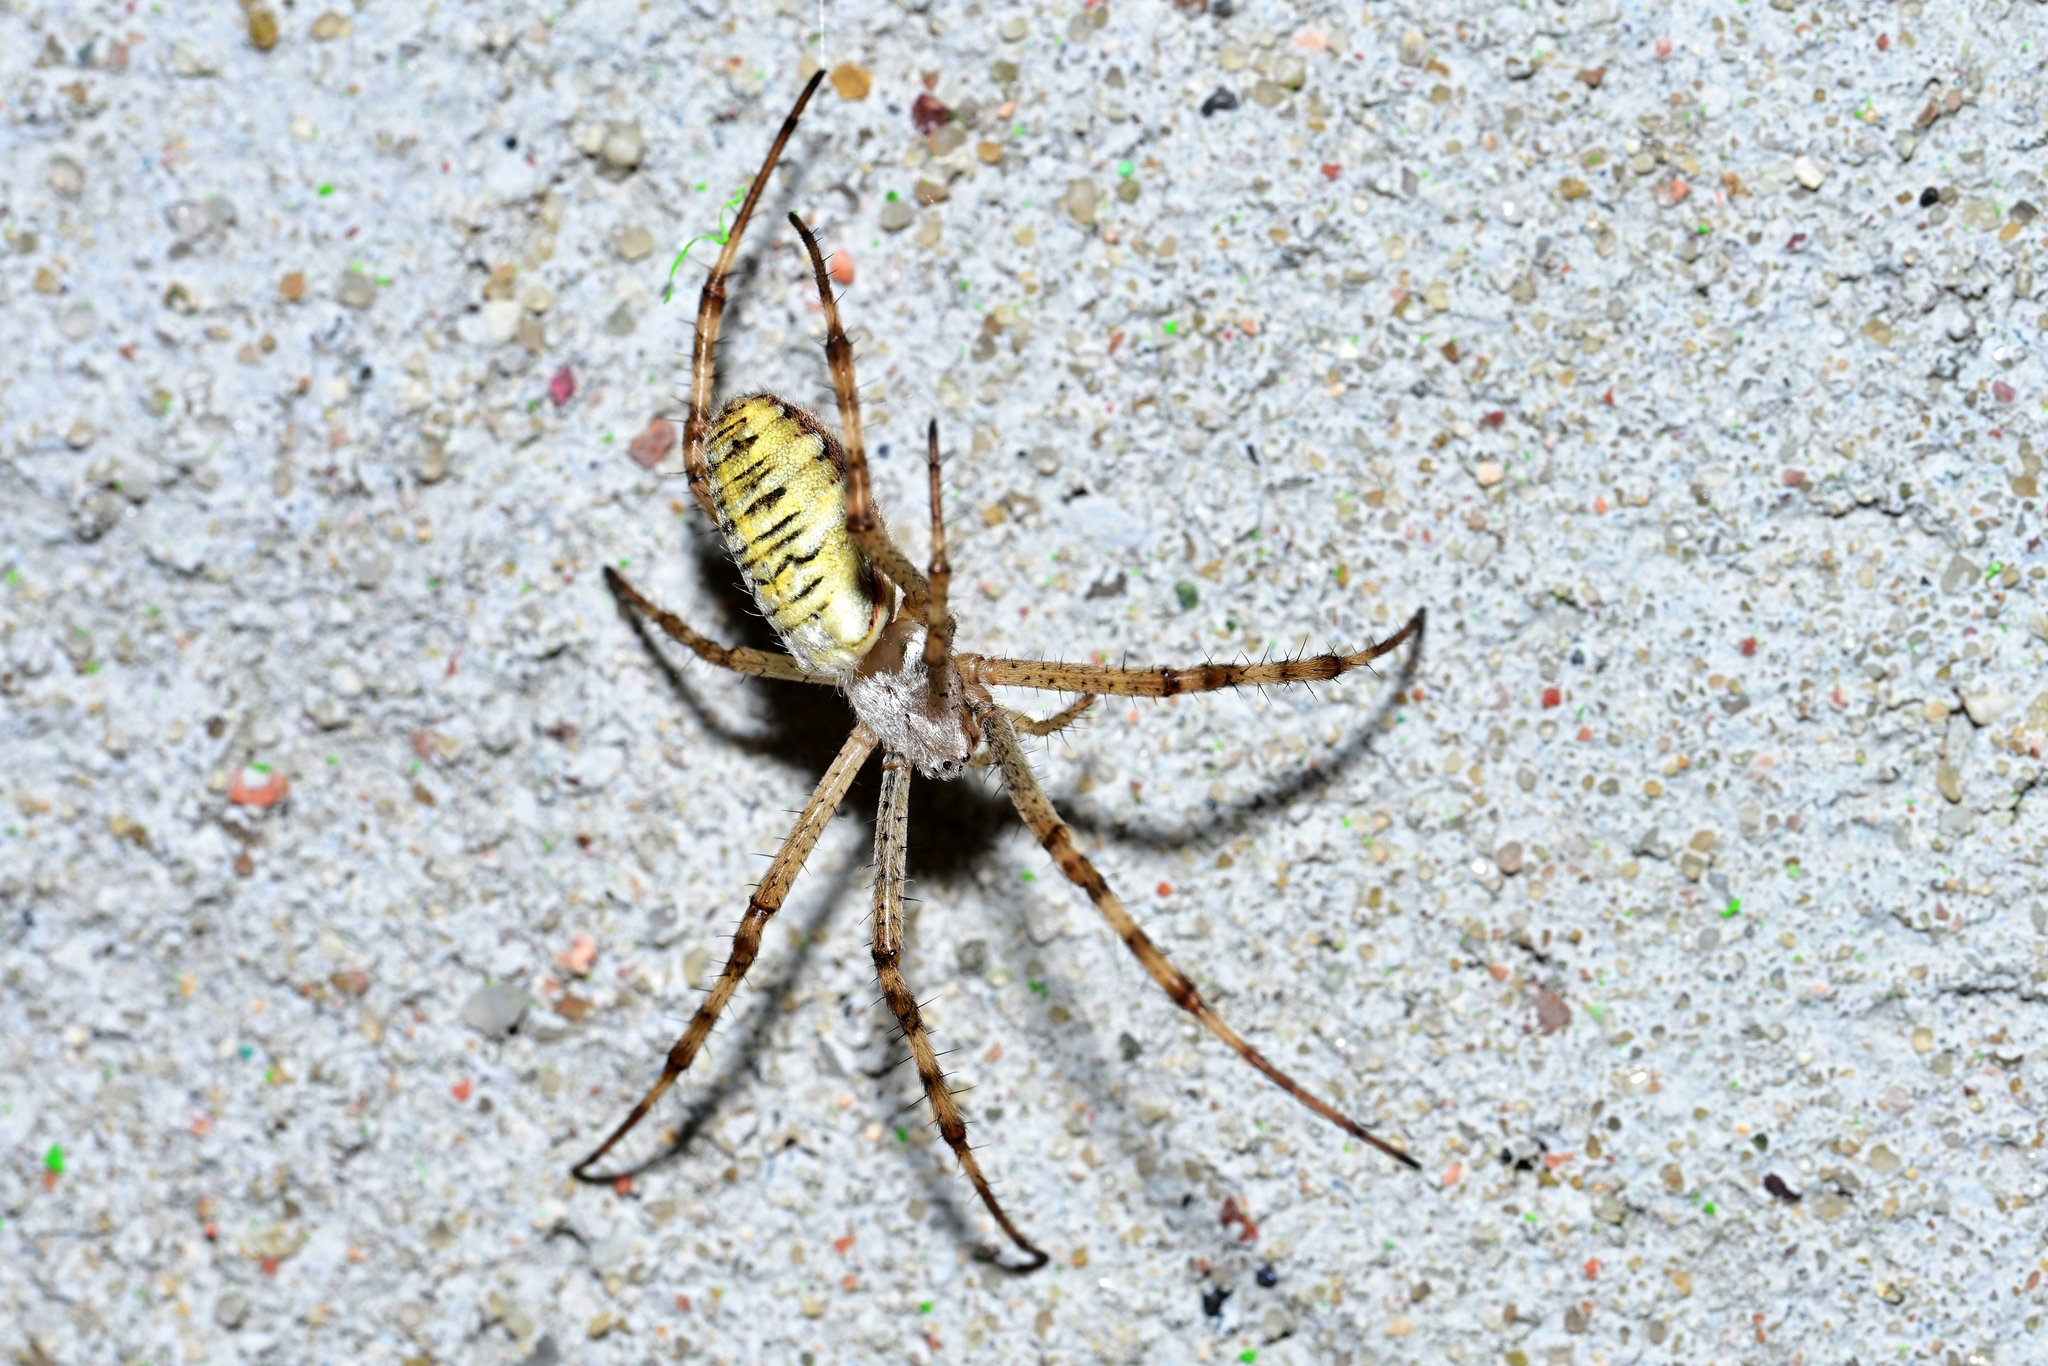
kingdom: Animalia
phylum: Arthropoda
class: Arachnida
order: Araneae
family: Araneidae
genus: Argiope
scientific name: Argiope bruennichi
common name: Wasp spider
